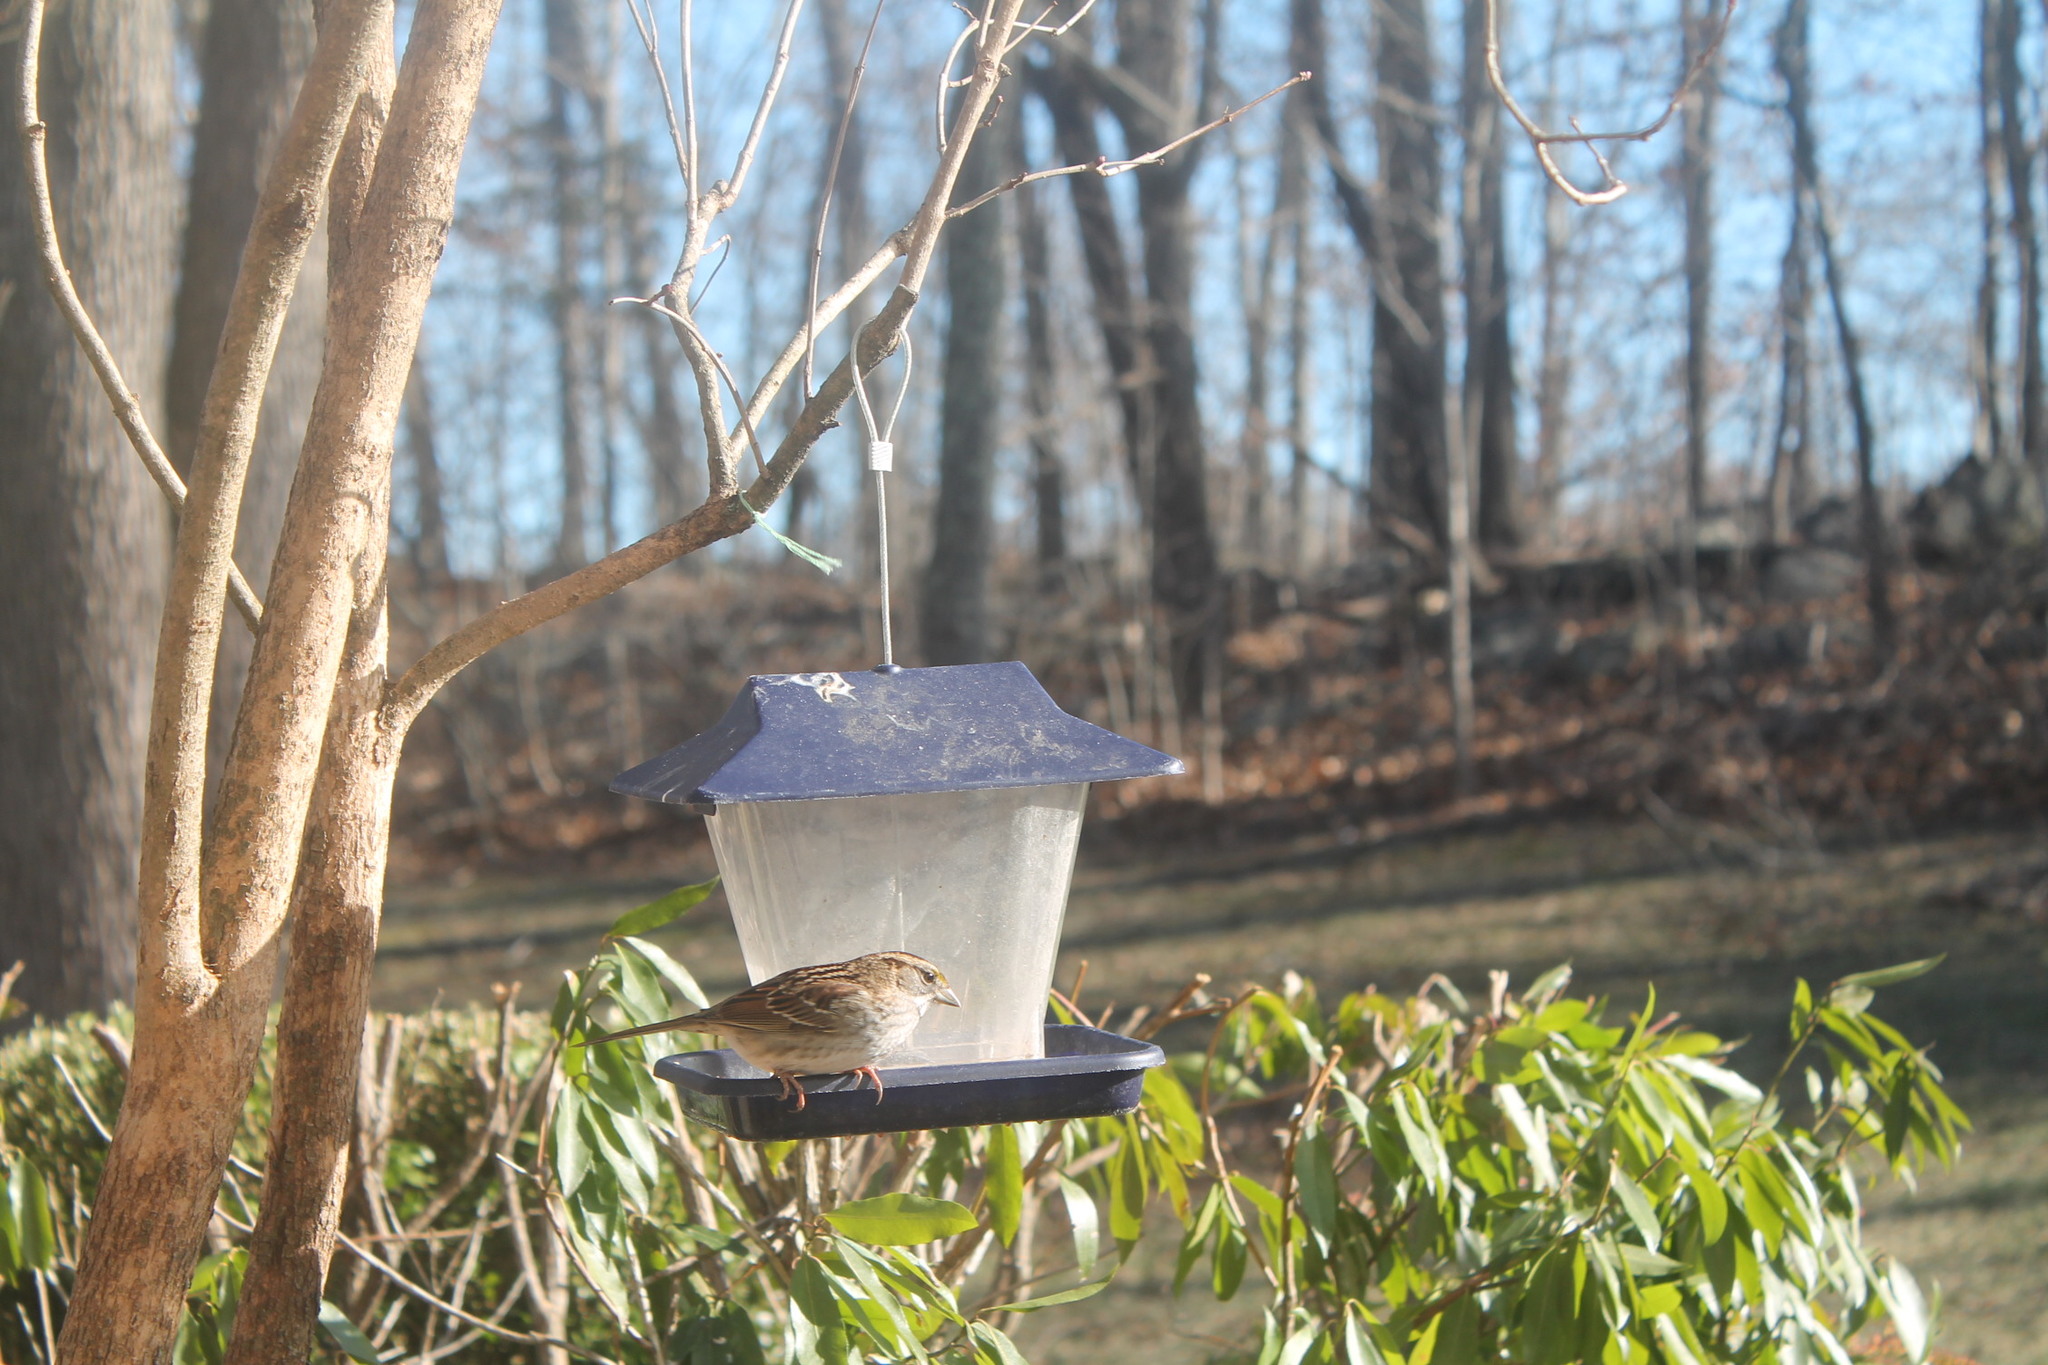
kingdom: Animalia
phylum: Chordata
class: Aves
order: Passeriformes
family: Passerellidae
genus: Zonotrichia
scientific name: Zonotrichia albicollis
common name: White-throated sparrow
